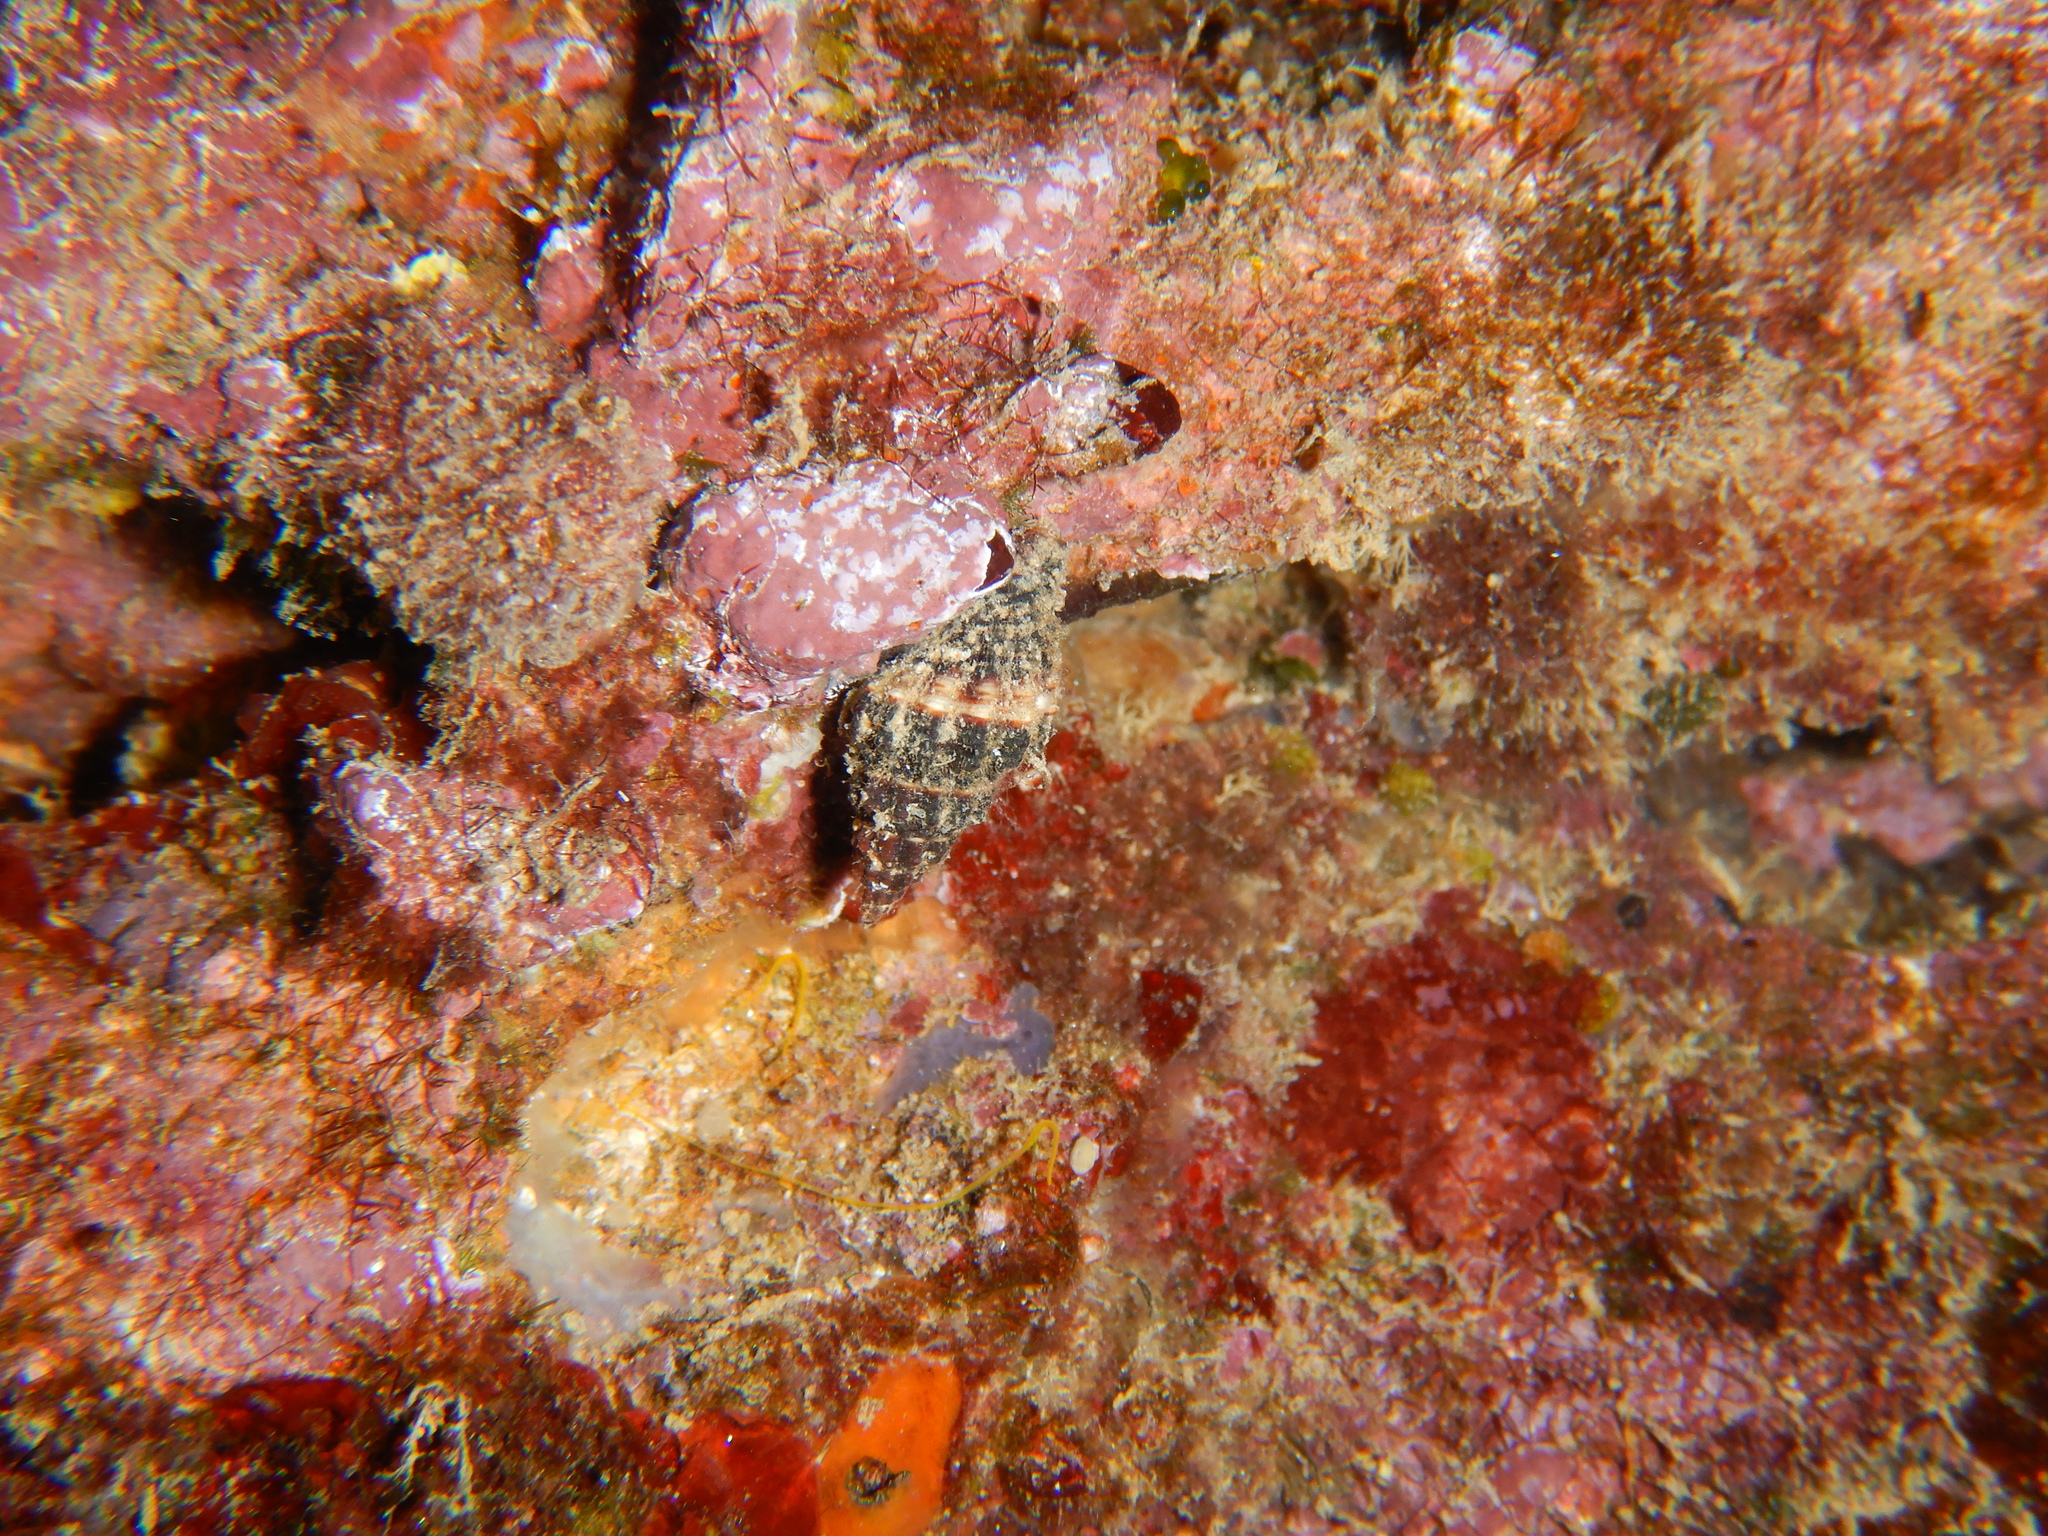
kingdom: Animalia
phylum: Mollusca
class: Gastropoda
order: Neogastropoda
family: Pisaniidae
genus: Aplus
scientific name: Aplus dorbignyi
